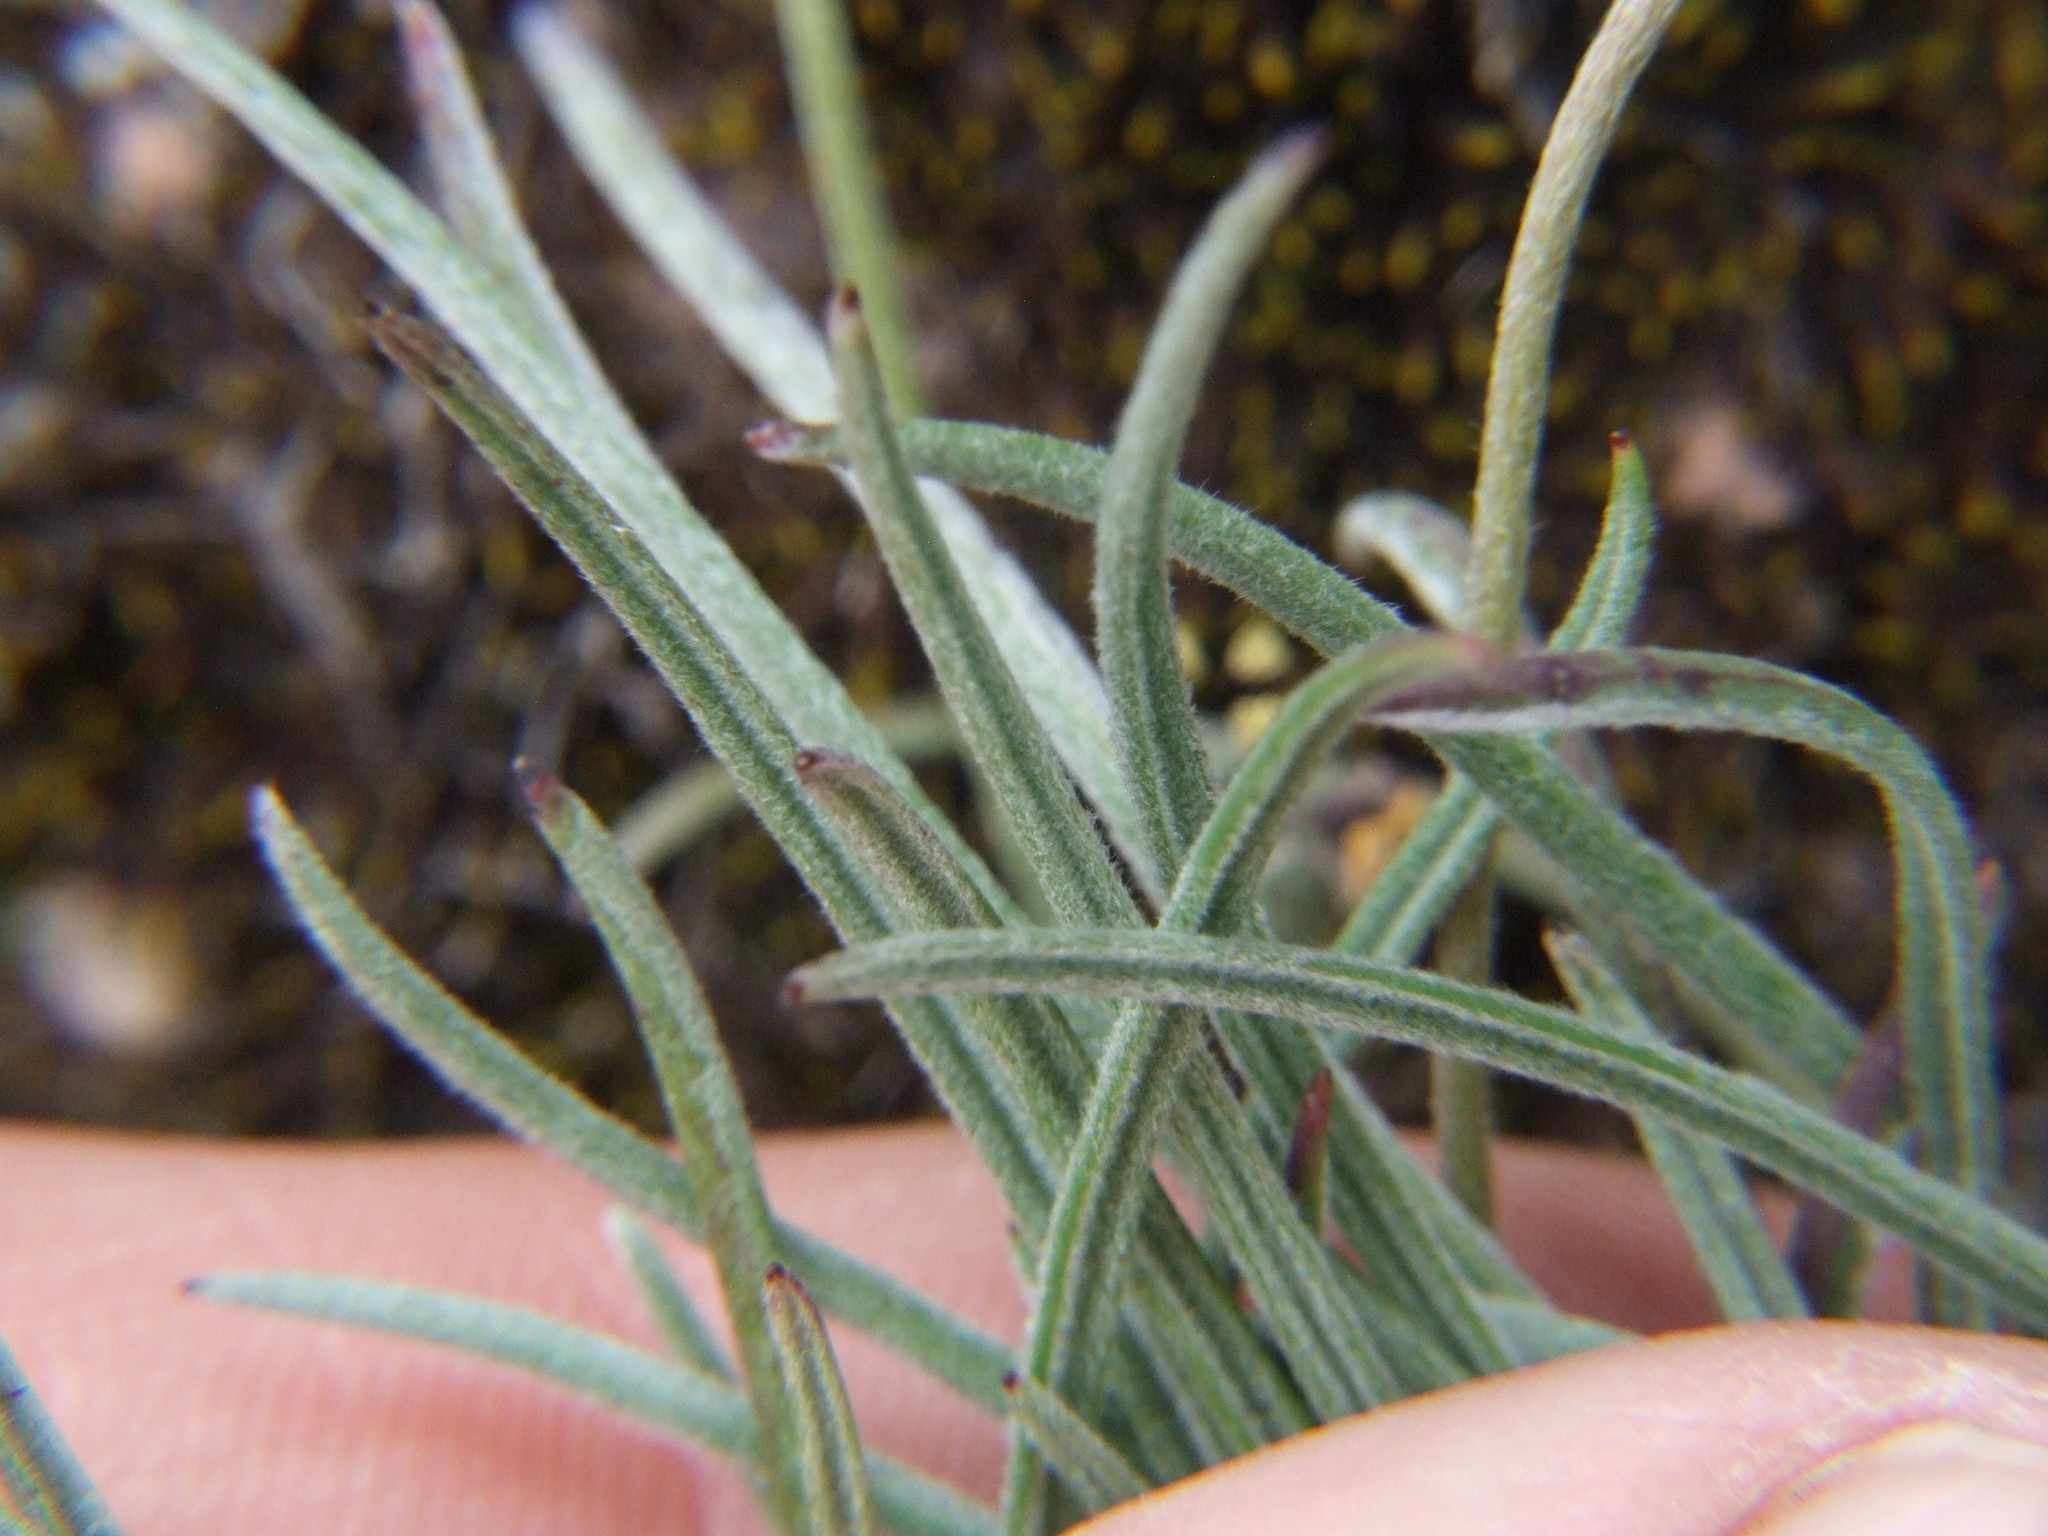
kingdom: Plantae
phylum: Tracheophyta
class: Magnoliopsida
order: Lamiales
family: Plantaginaceae
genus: Plantago
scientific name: Plantago sericea
